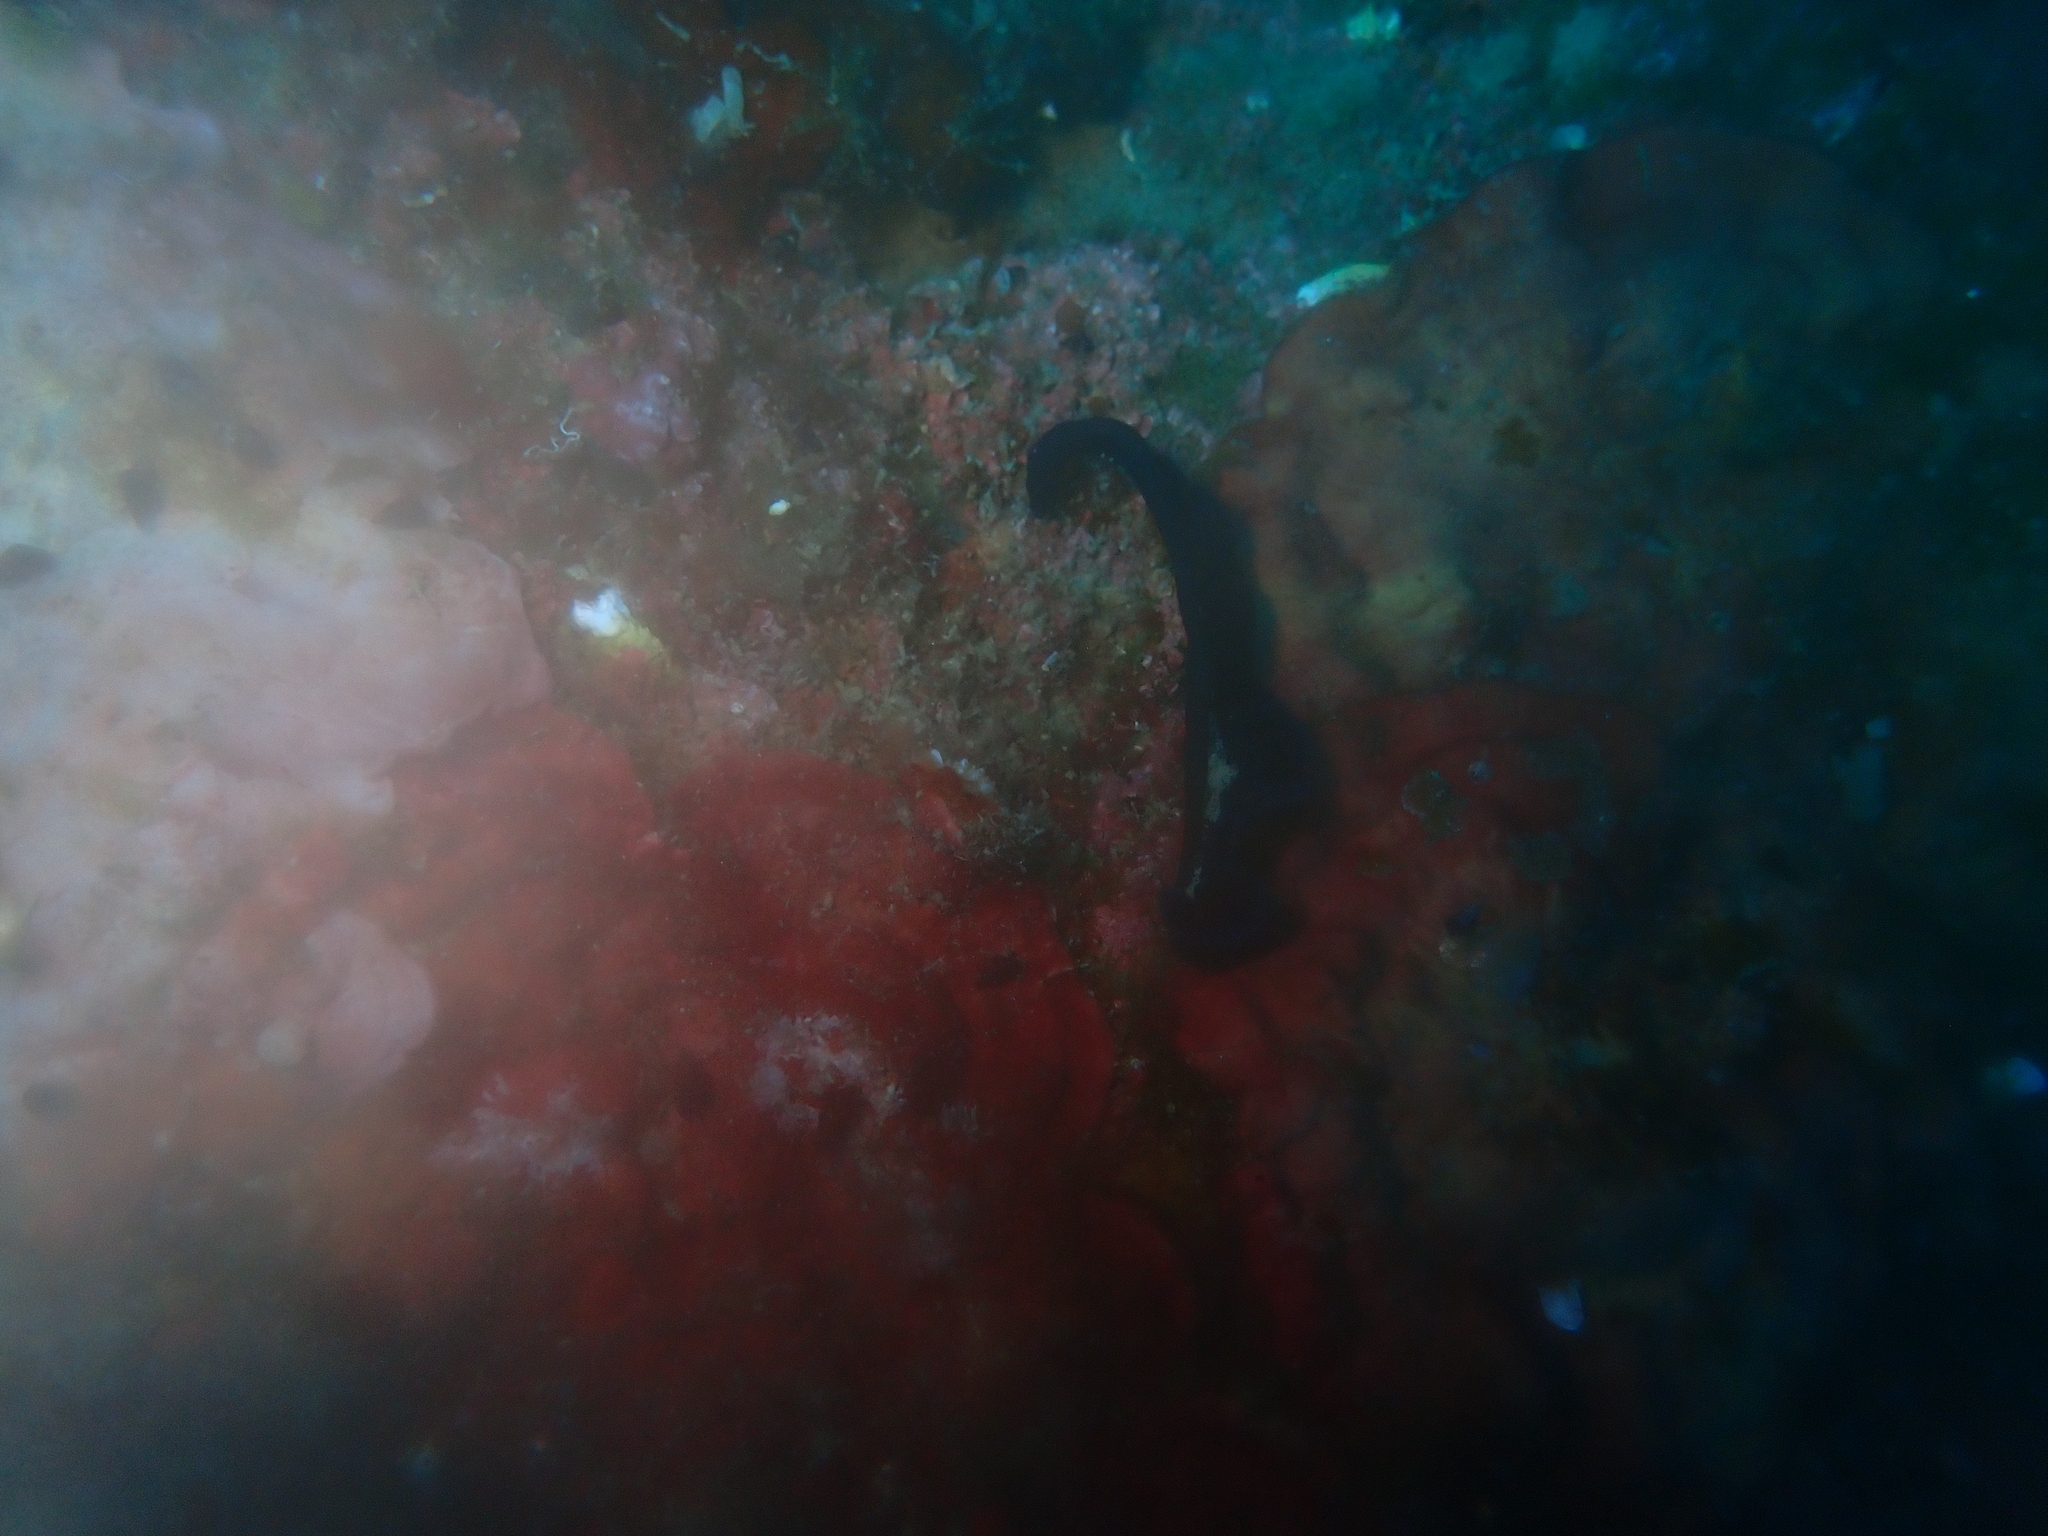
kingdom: Animalia
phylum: Annelida
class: Polychaeta
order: Echiuroidea
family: Bonelliidae
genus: Bonellia
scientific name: Bonellia viridis
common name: Green spoon worm
